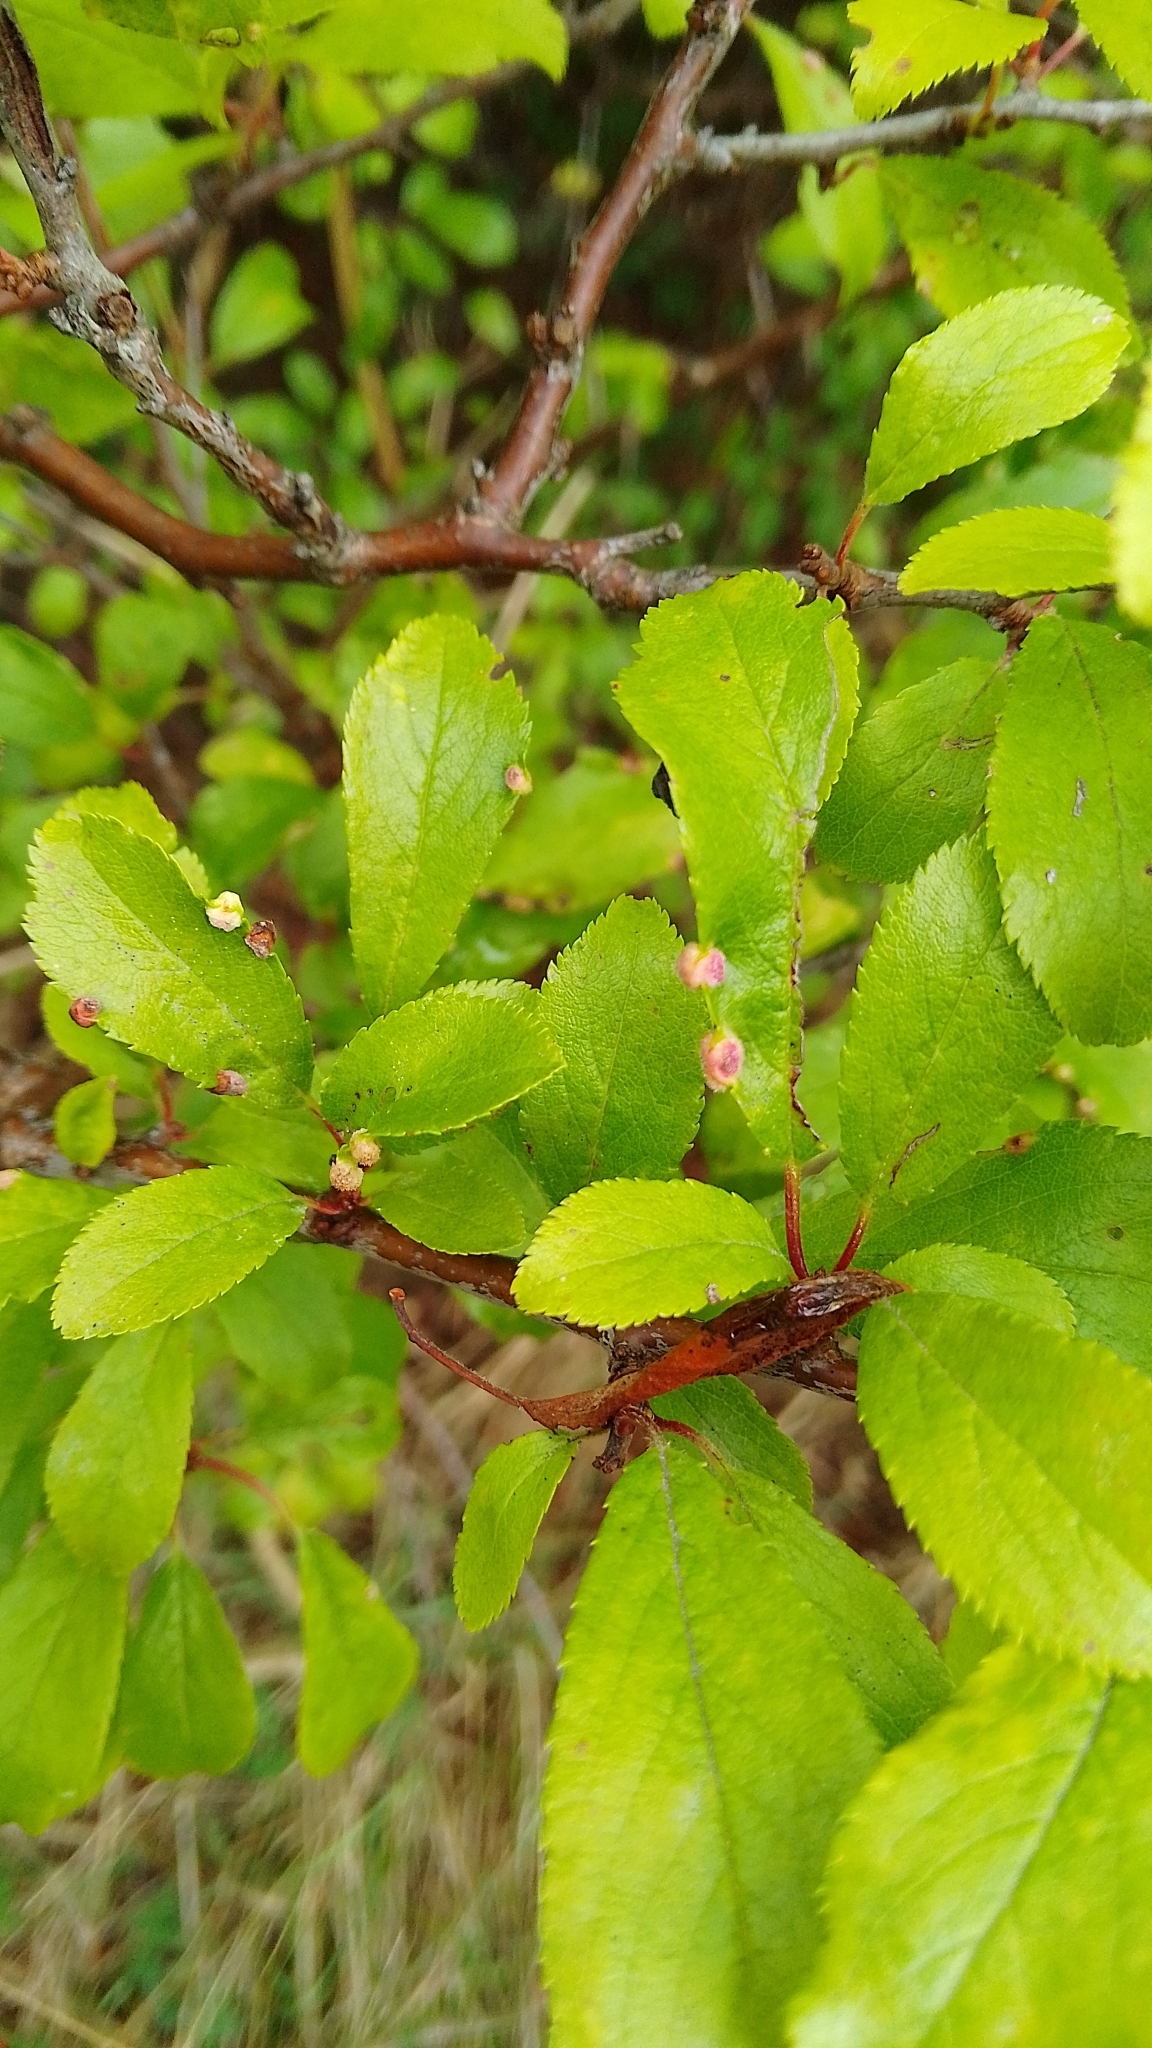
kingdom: Animalia
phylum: Arthropoda
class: Arachnida
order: Trombidiformes
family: Eriophyidae
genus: Eriophyes
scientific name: Eriophyes similis
